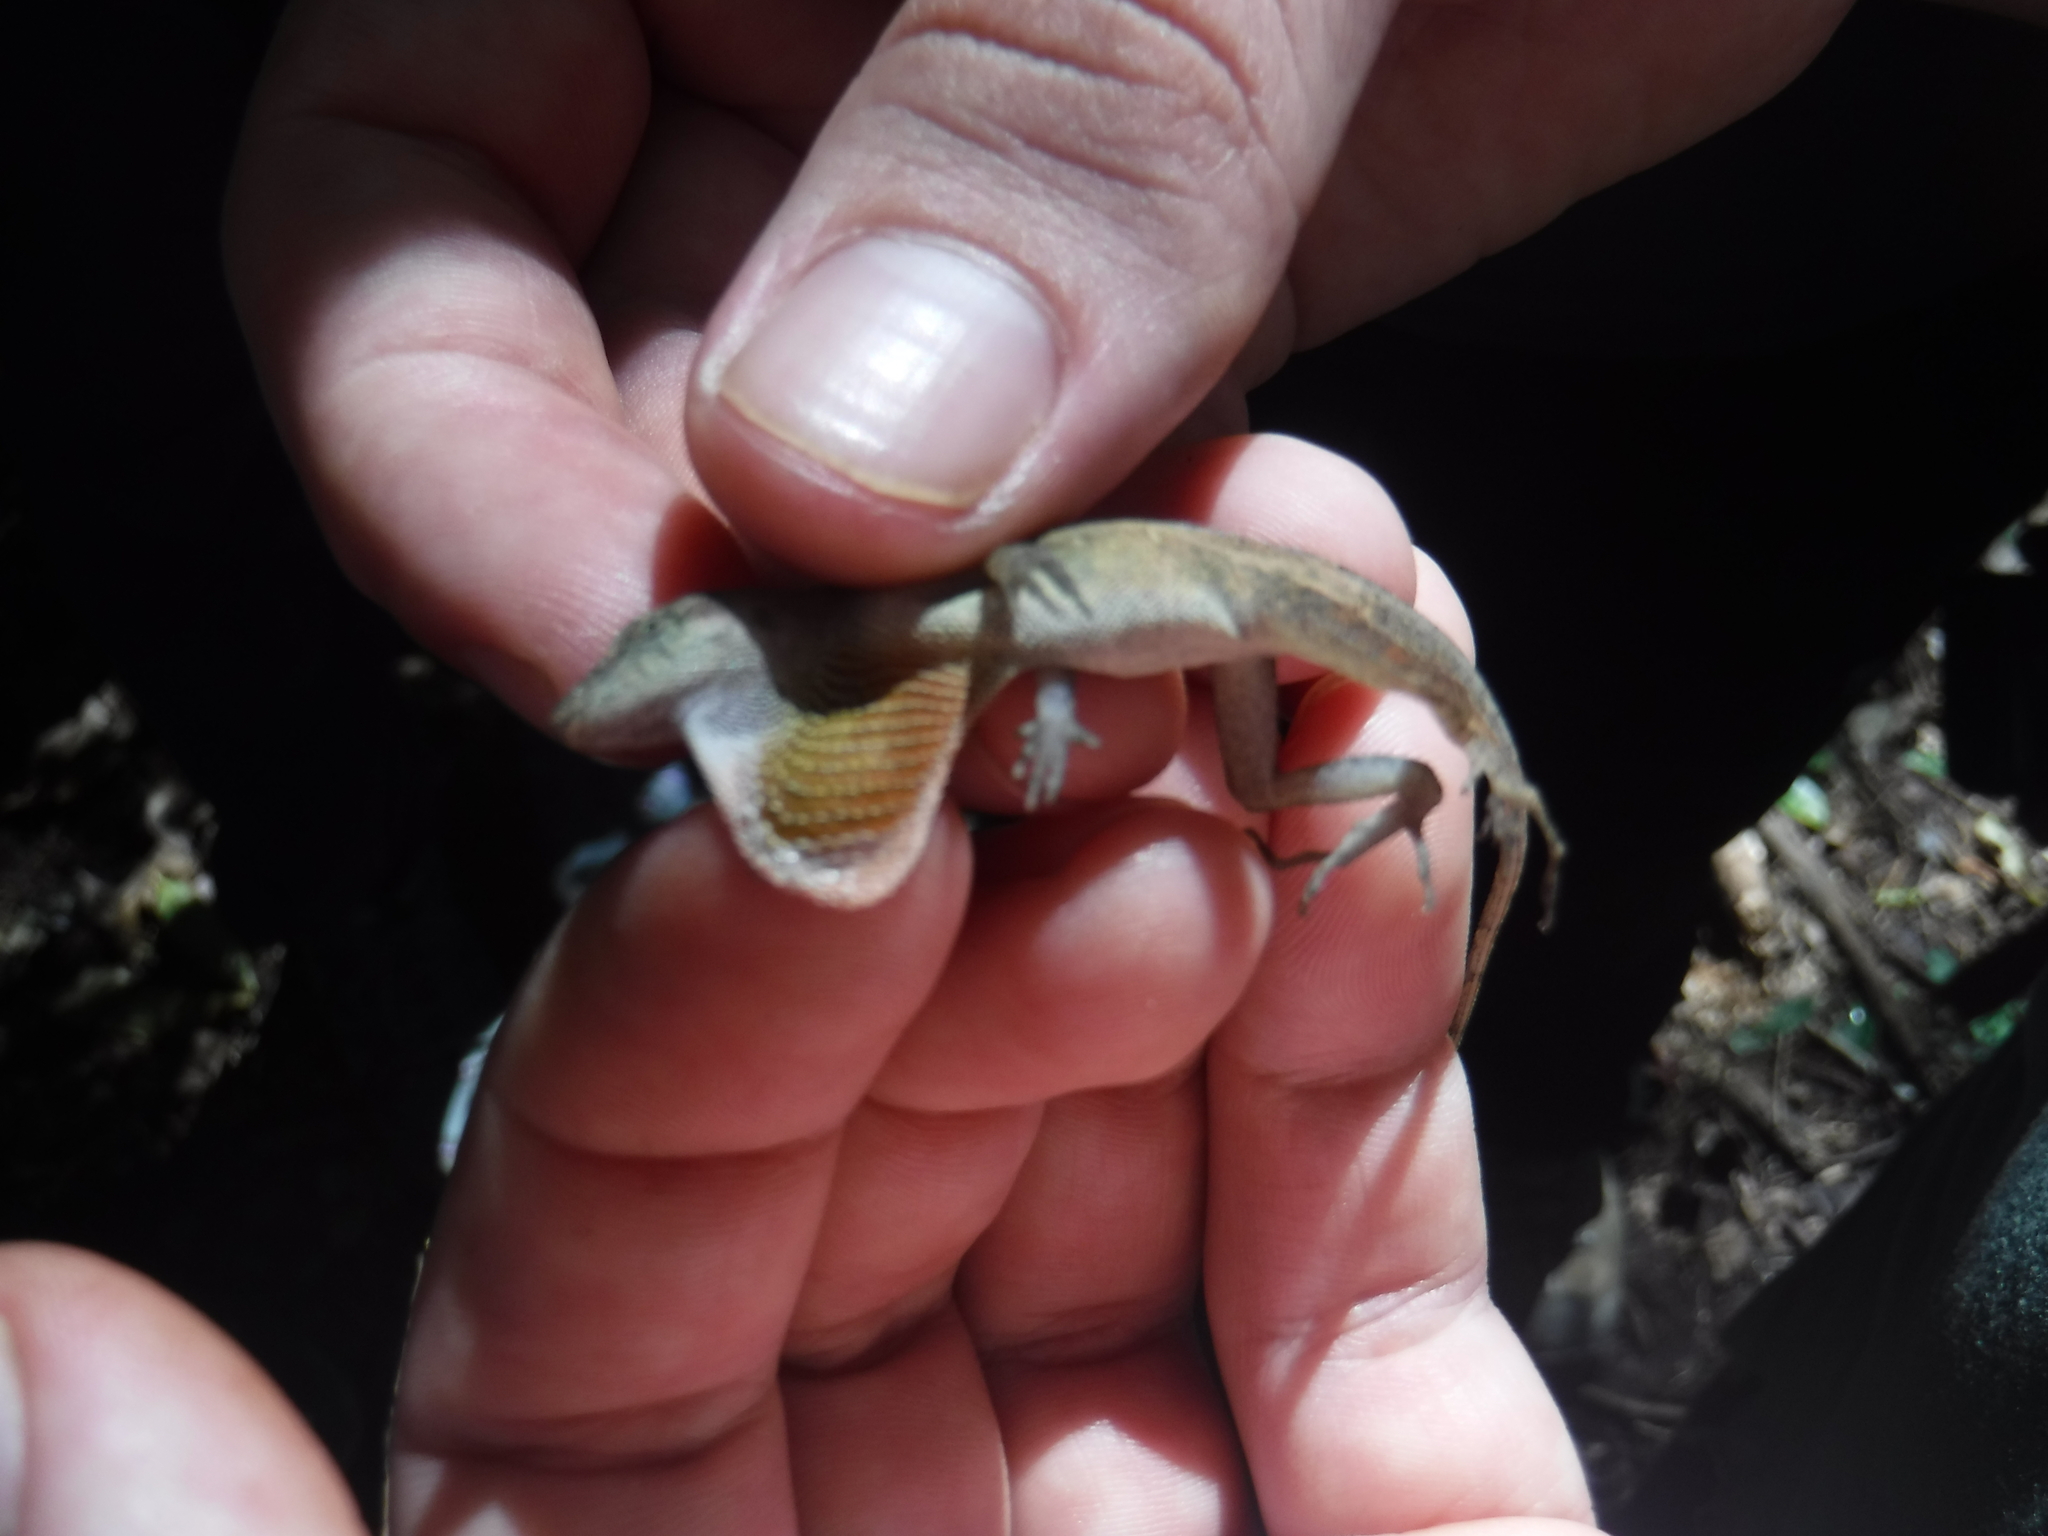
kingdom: Animalia
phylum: Chordata
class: Squamata
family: Dactyloidae
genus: Anolis
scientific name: Anolis cupreus
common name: Copper anole
